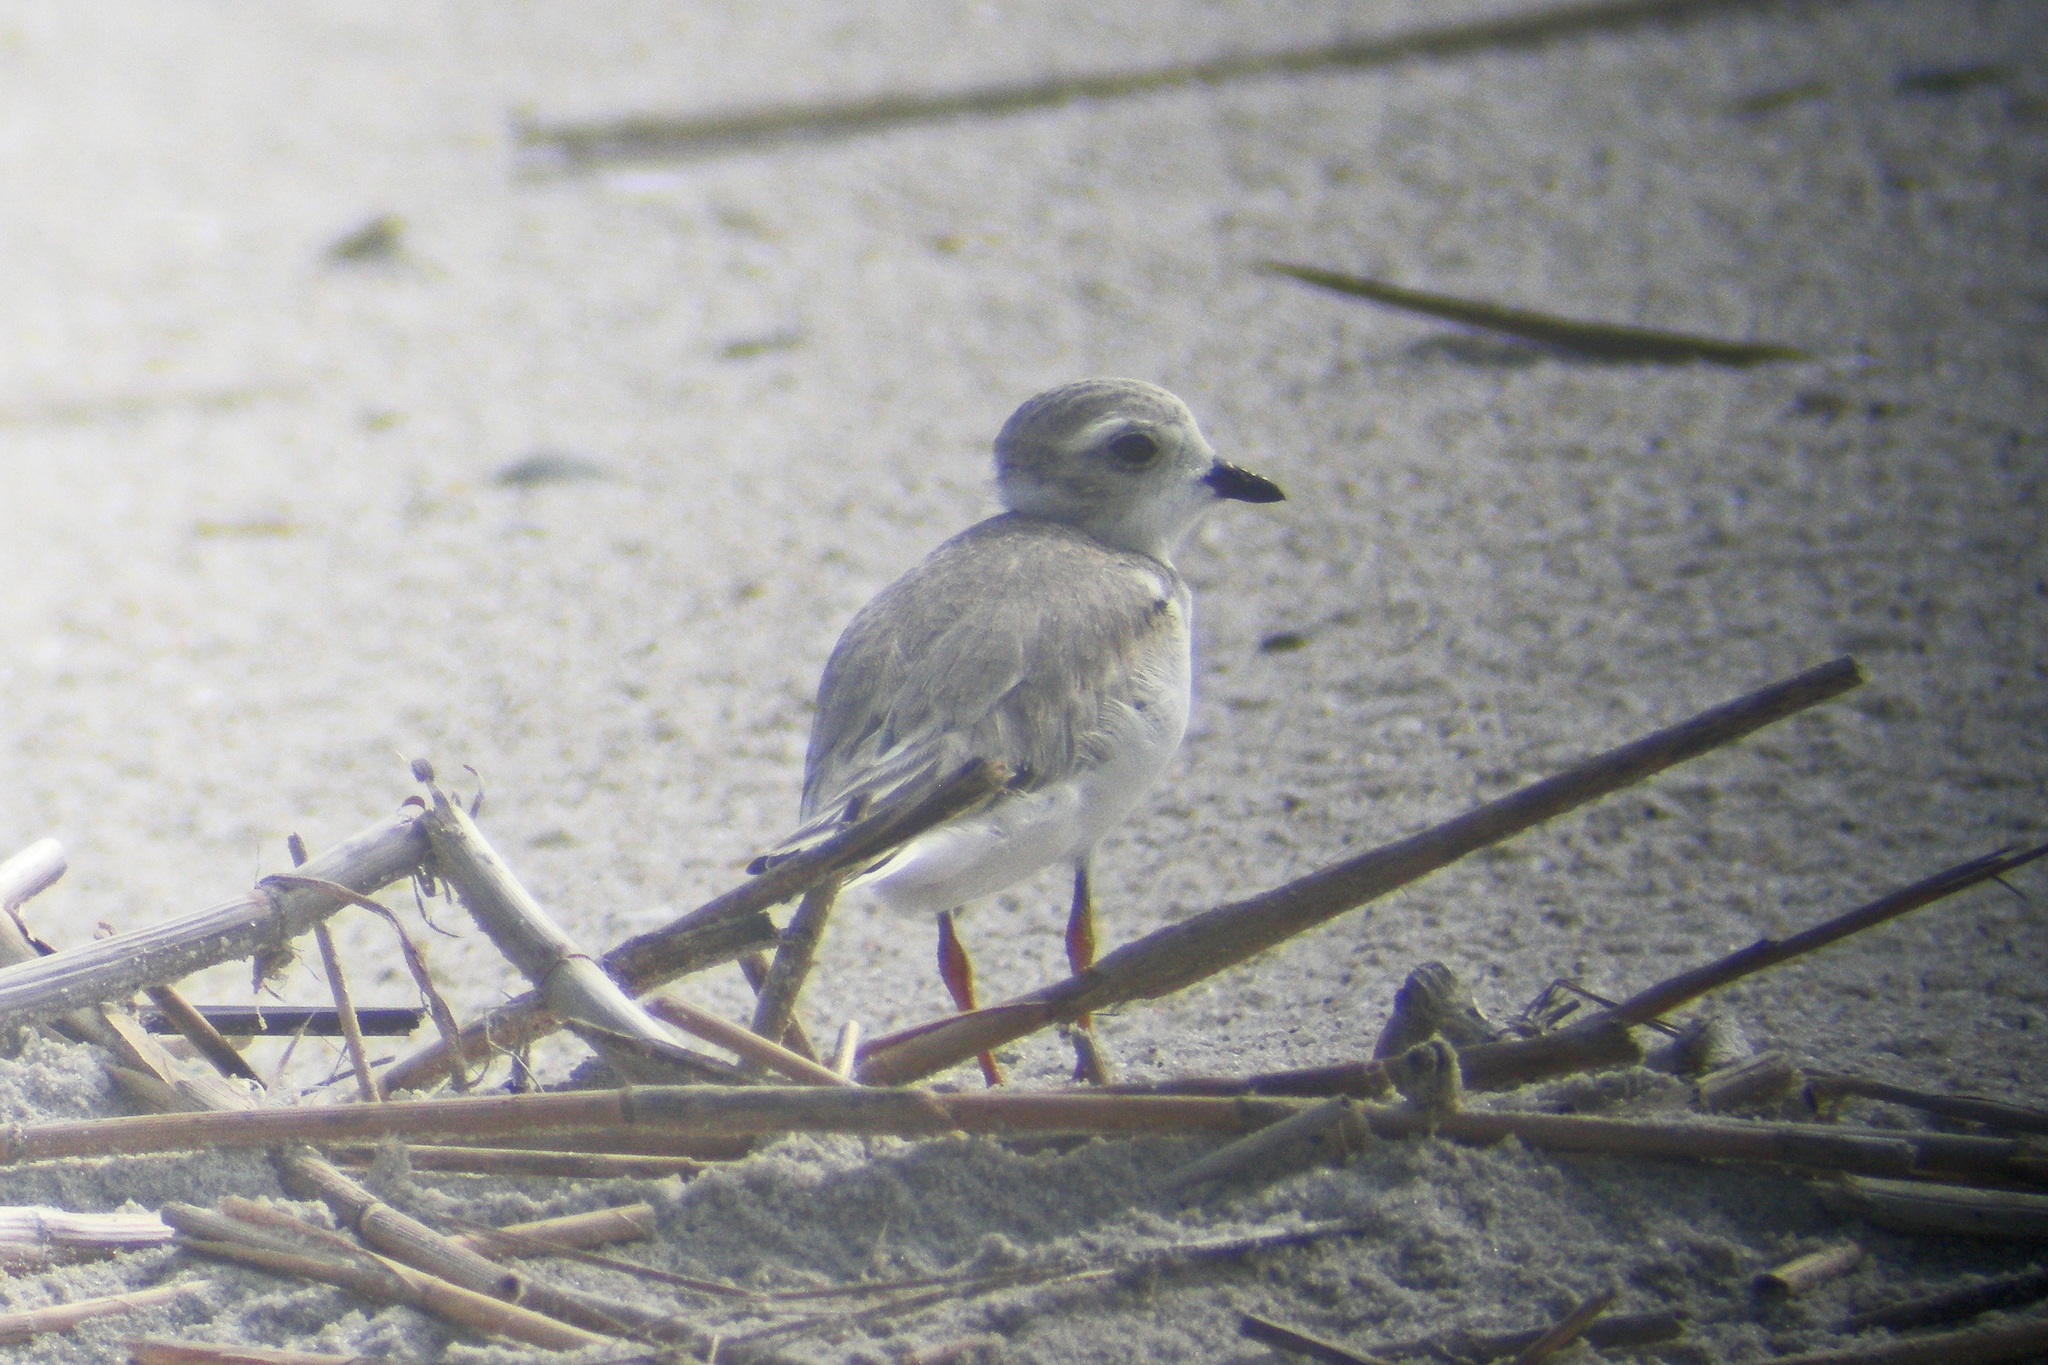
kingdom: Animalia
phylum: Chordata
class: Aves
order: Charadriiformes
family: Charadriidae
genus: Charadrius
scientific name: Charadrius melodus
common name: Piping plover
